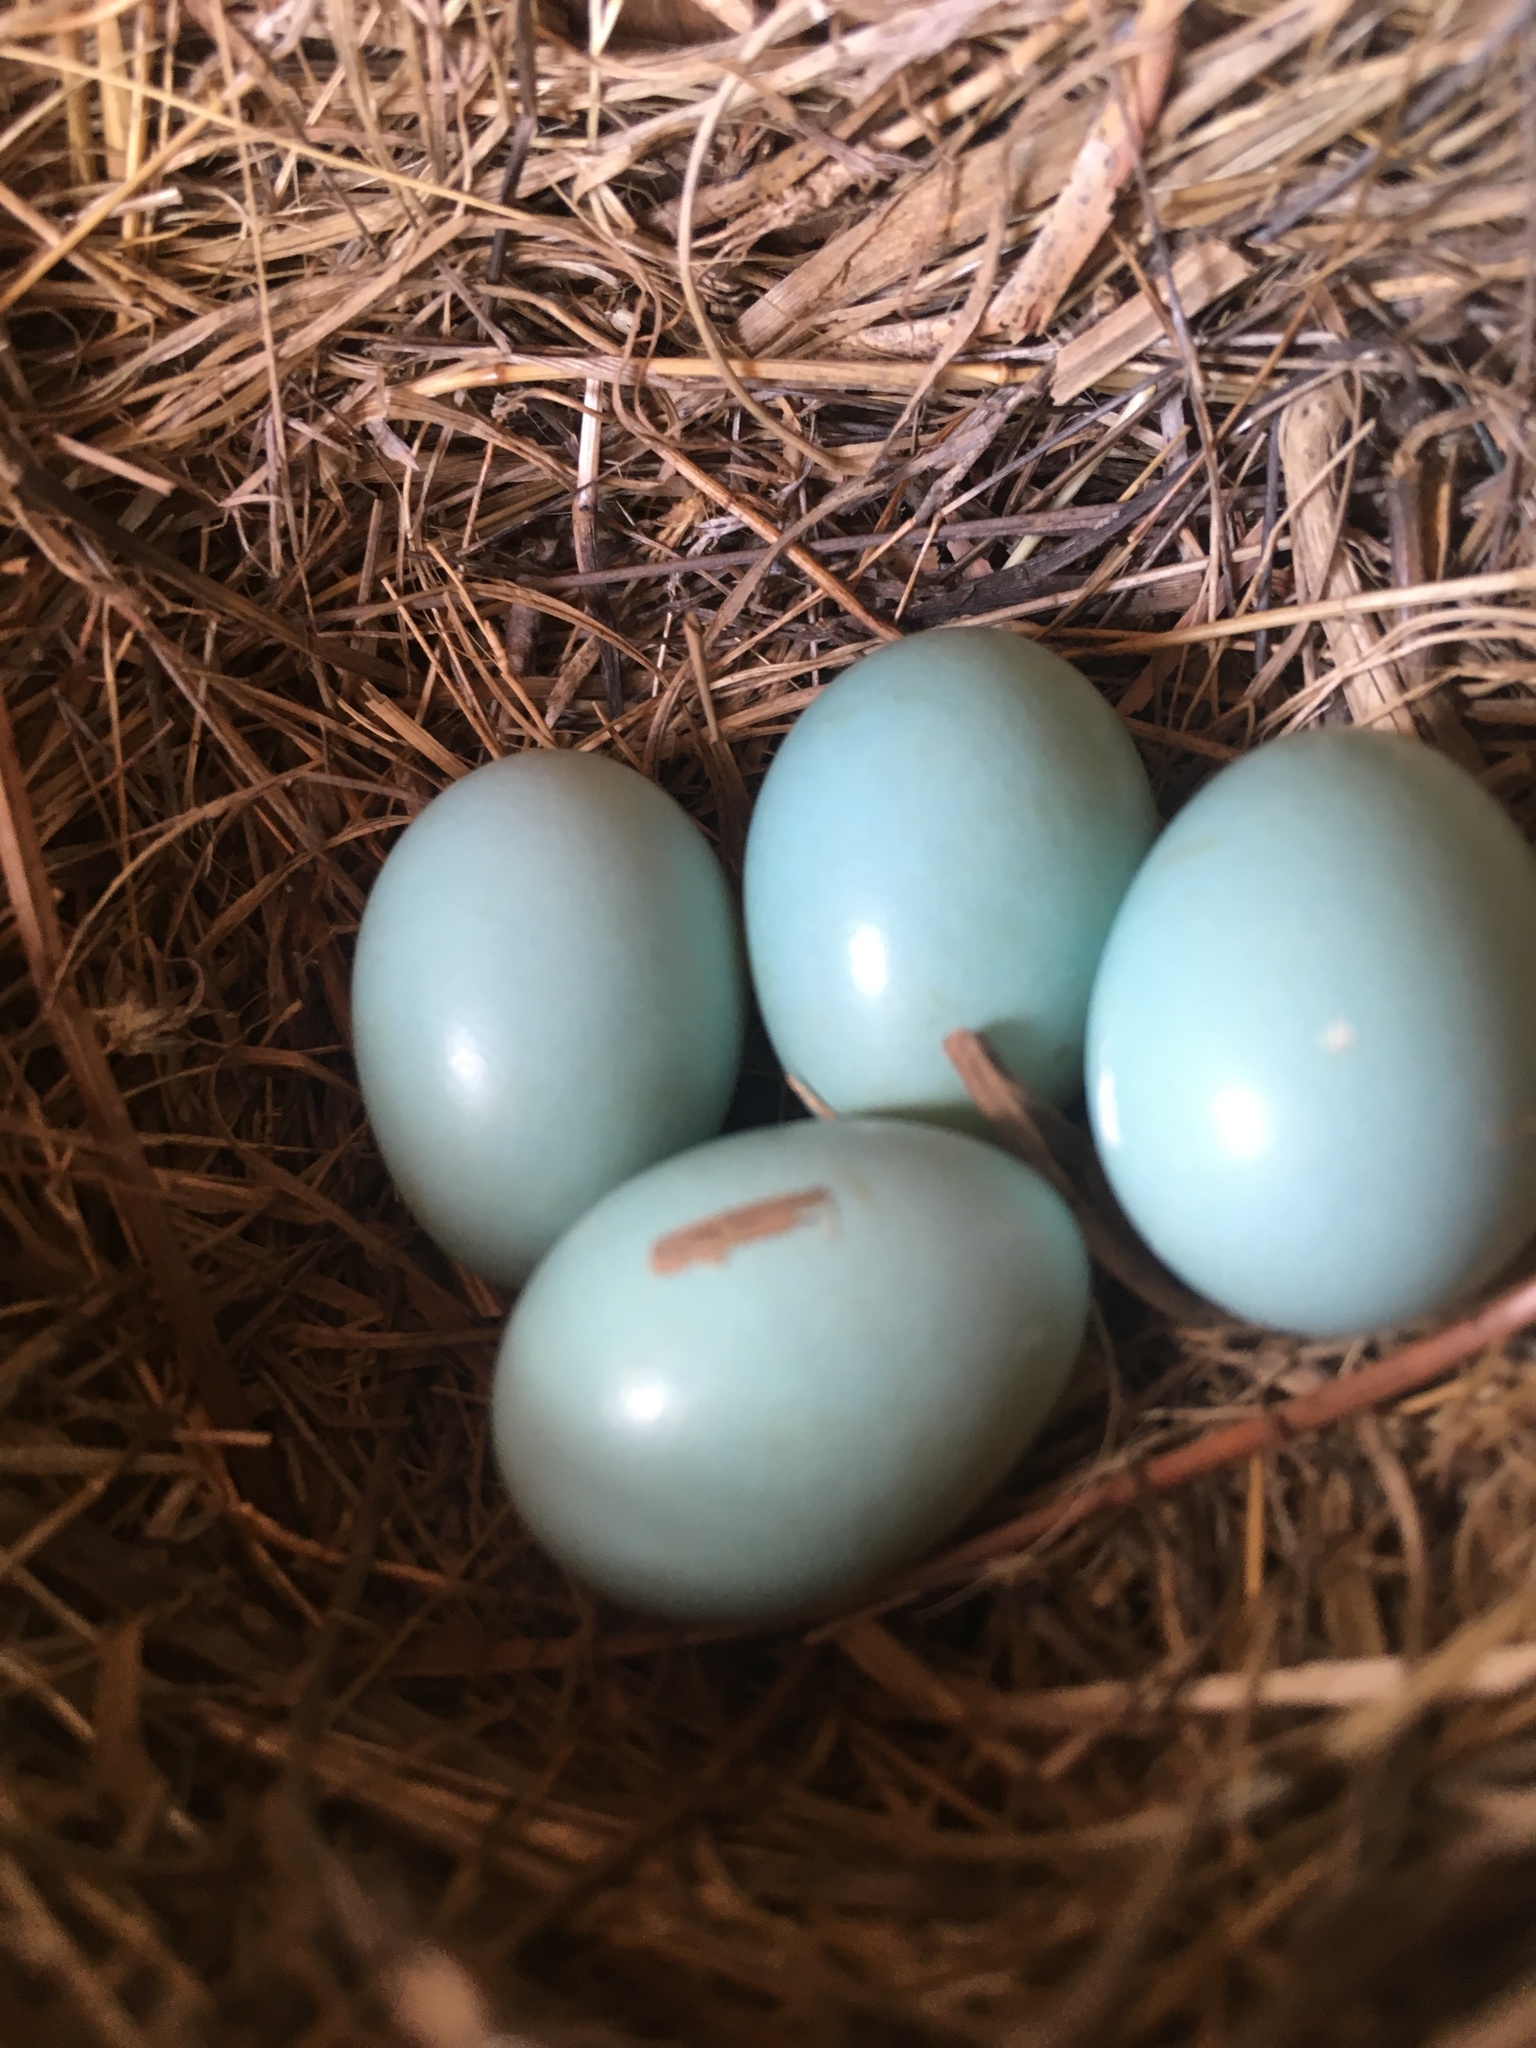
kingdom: Animalia
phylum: Chordata
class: Aves
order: Passeriformes
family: Turdidae
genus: Sialia
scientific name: Sialia sialis
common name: Eastern bluebird
